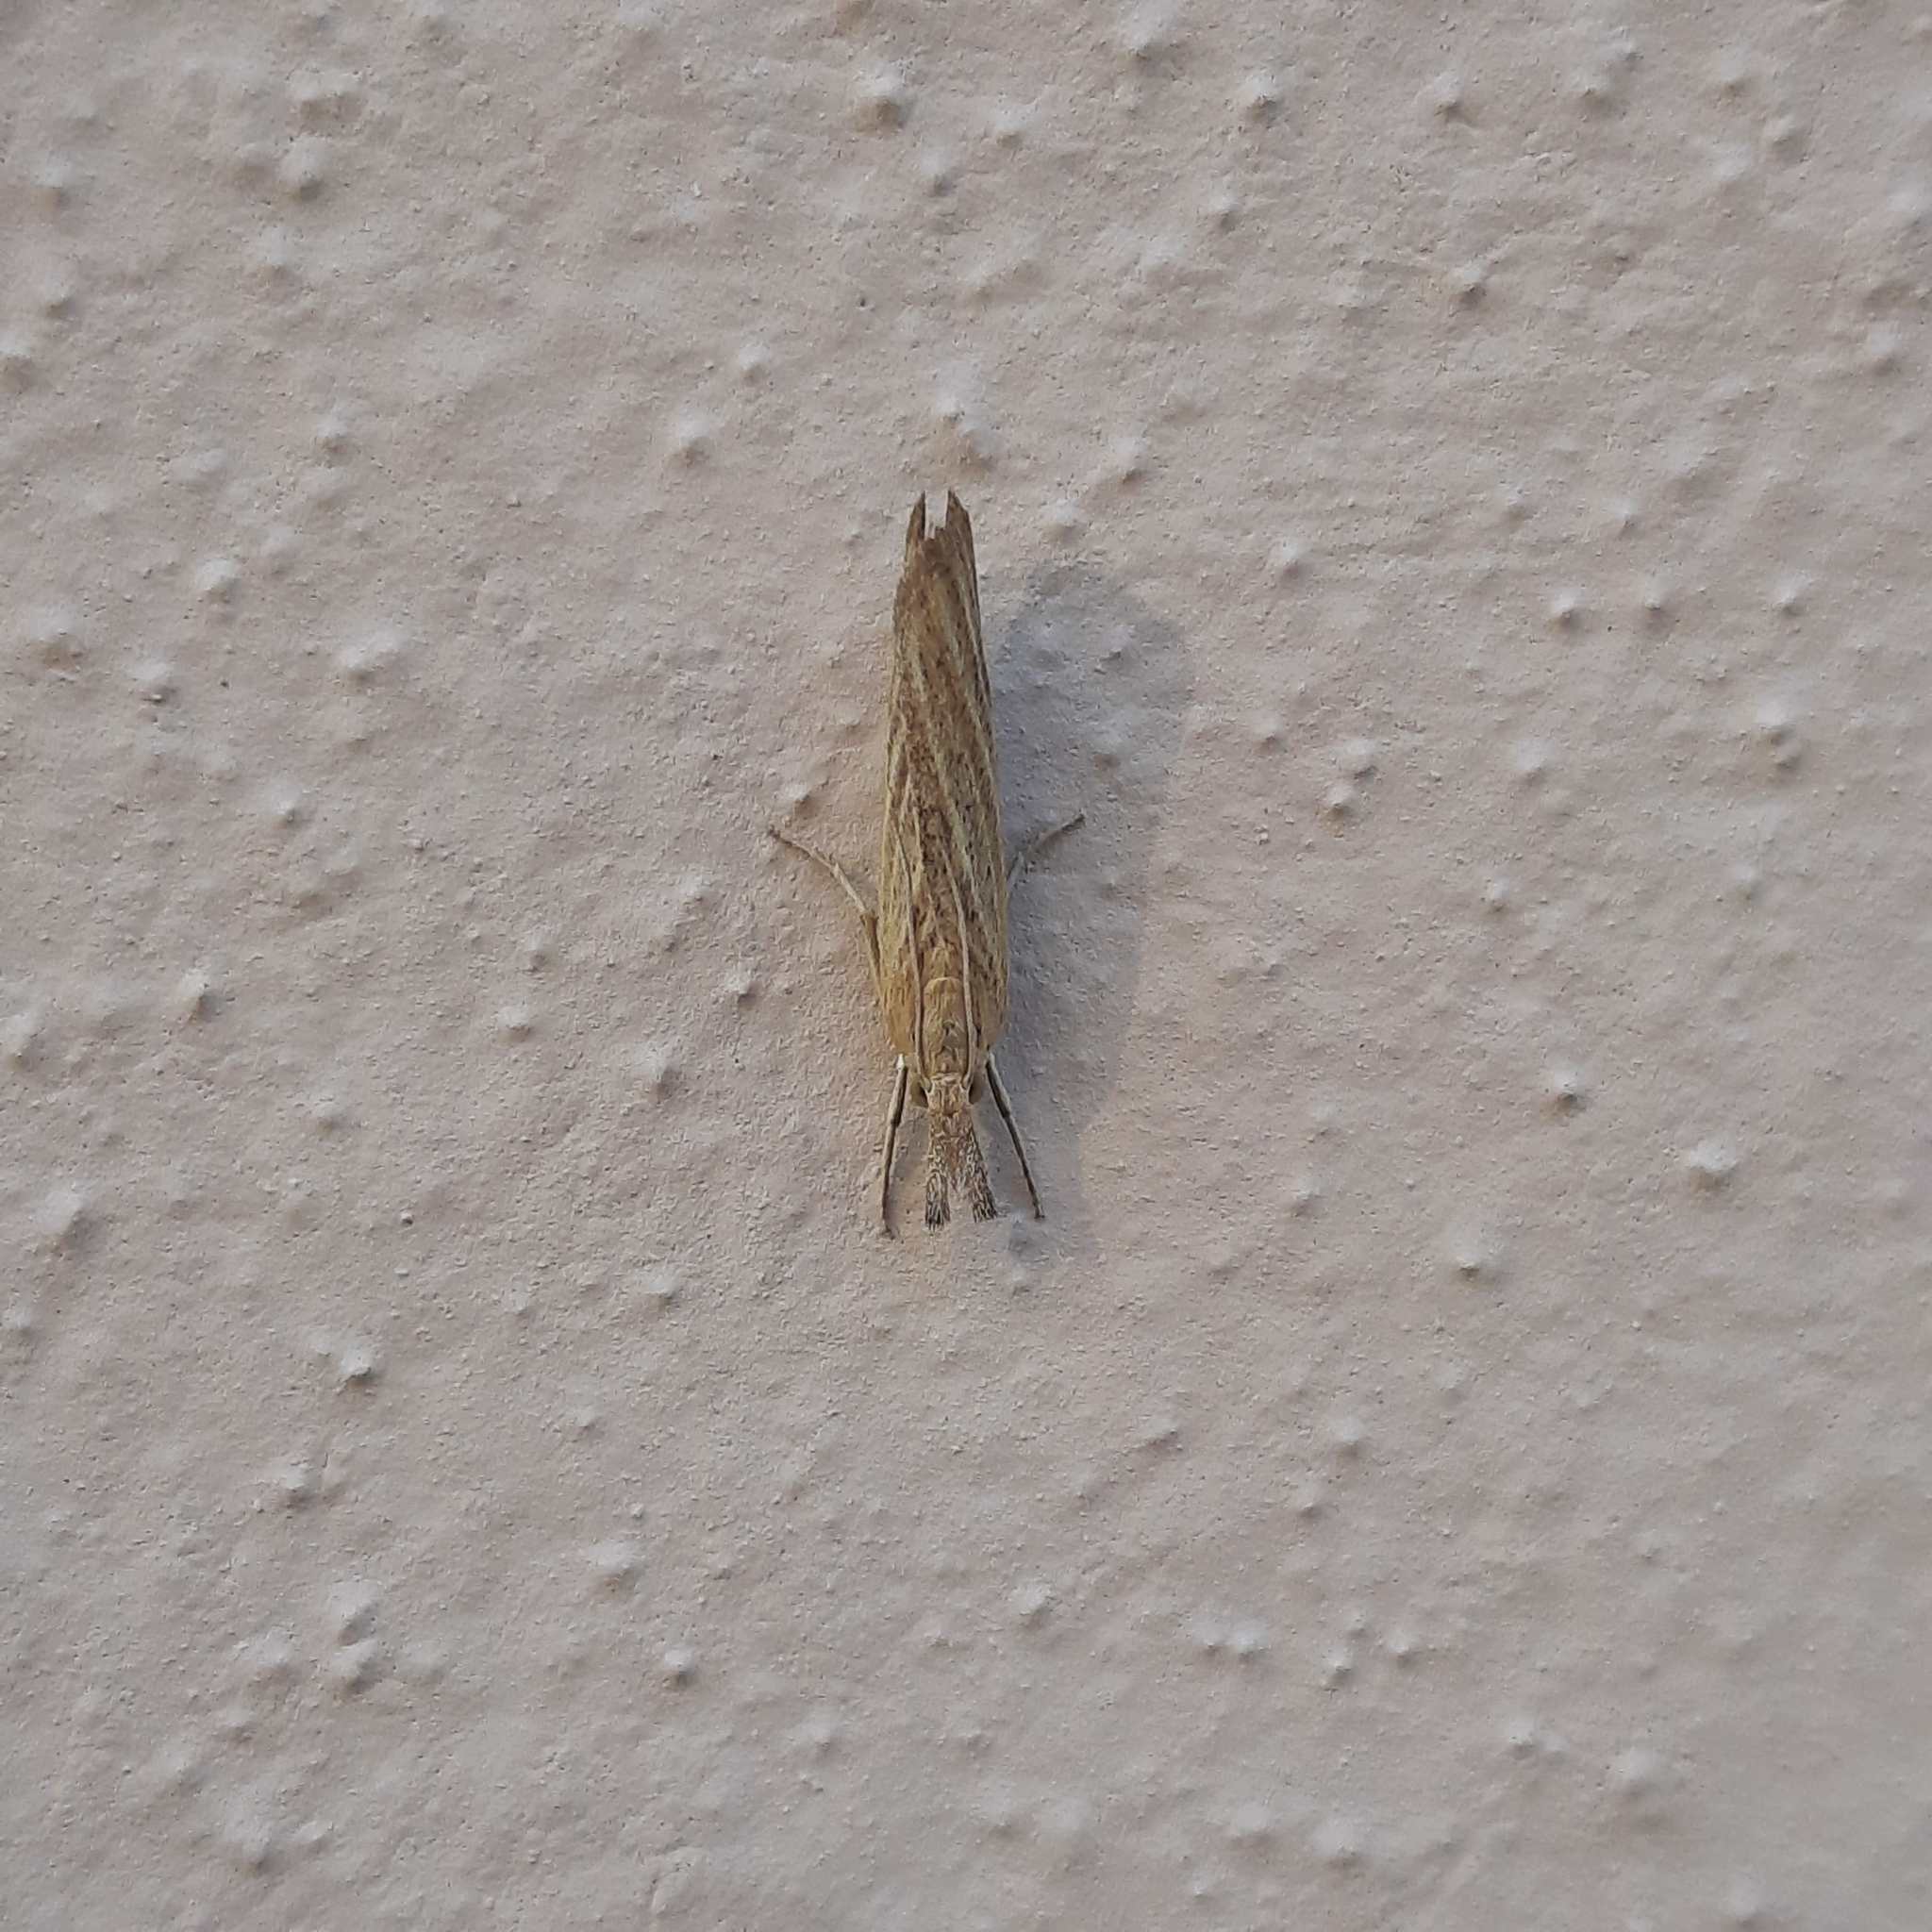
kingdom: Animalia
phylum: Arthropoda
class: Insecta
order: Lepidoptera
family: Crambidae
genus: Pediasia
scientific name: Pediasia luteella
